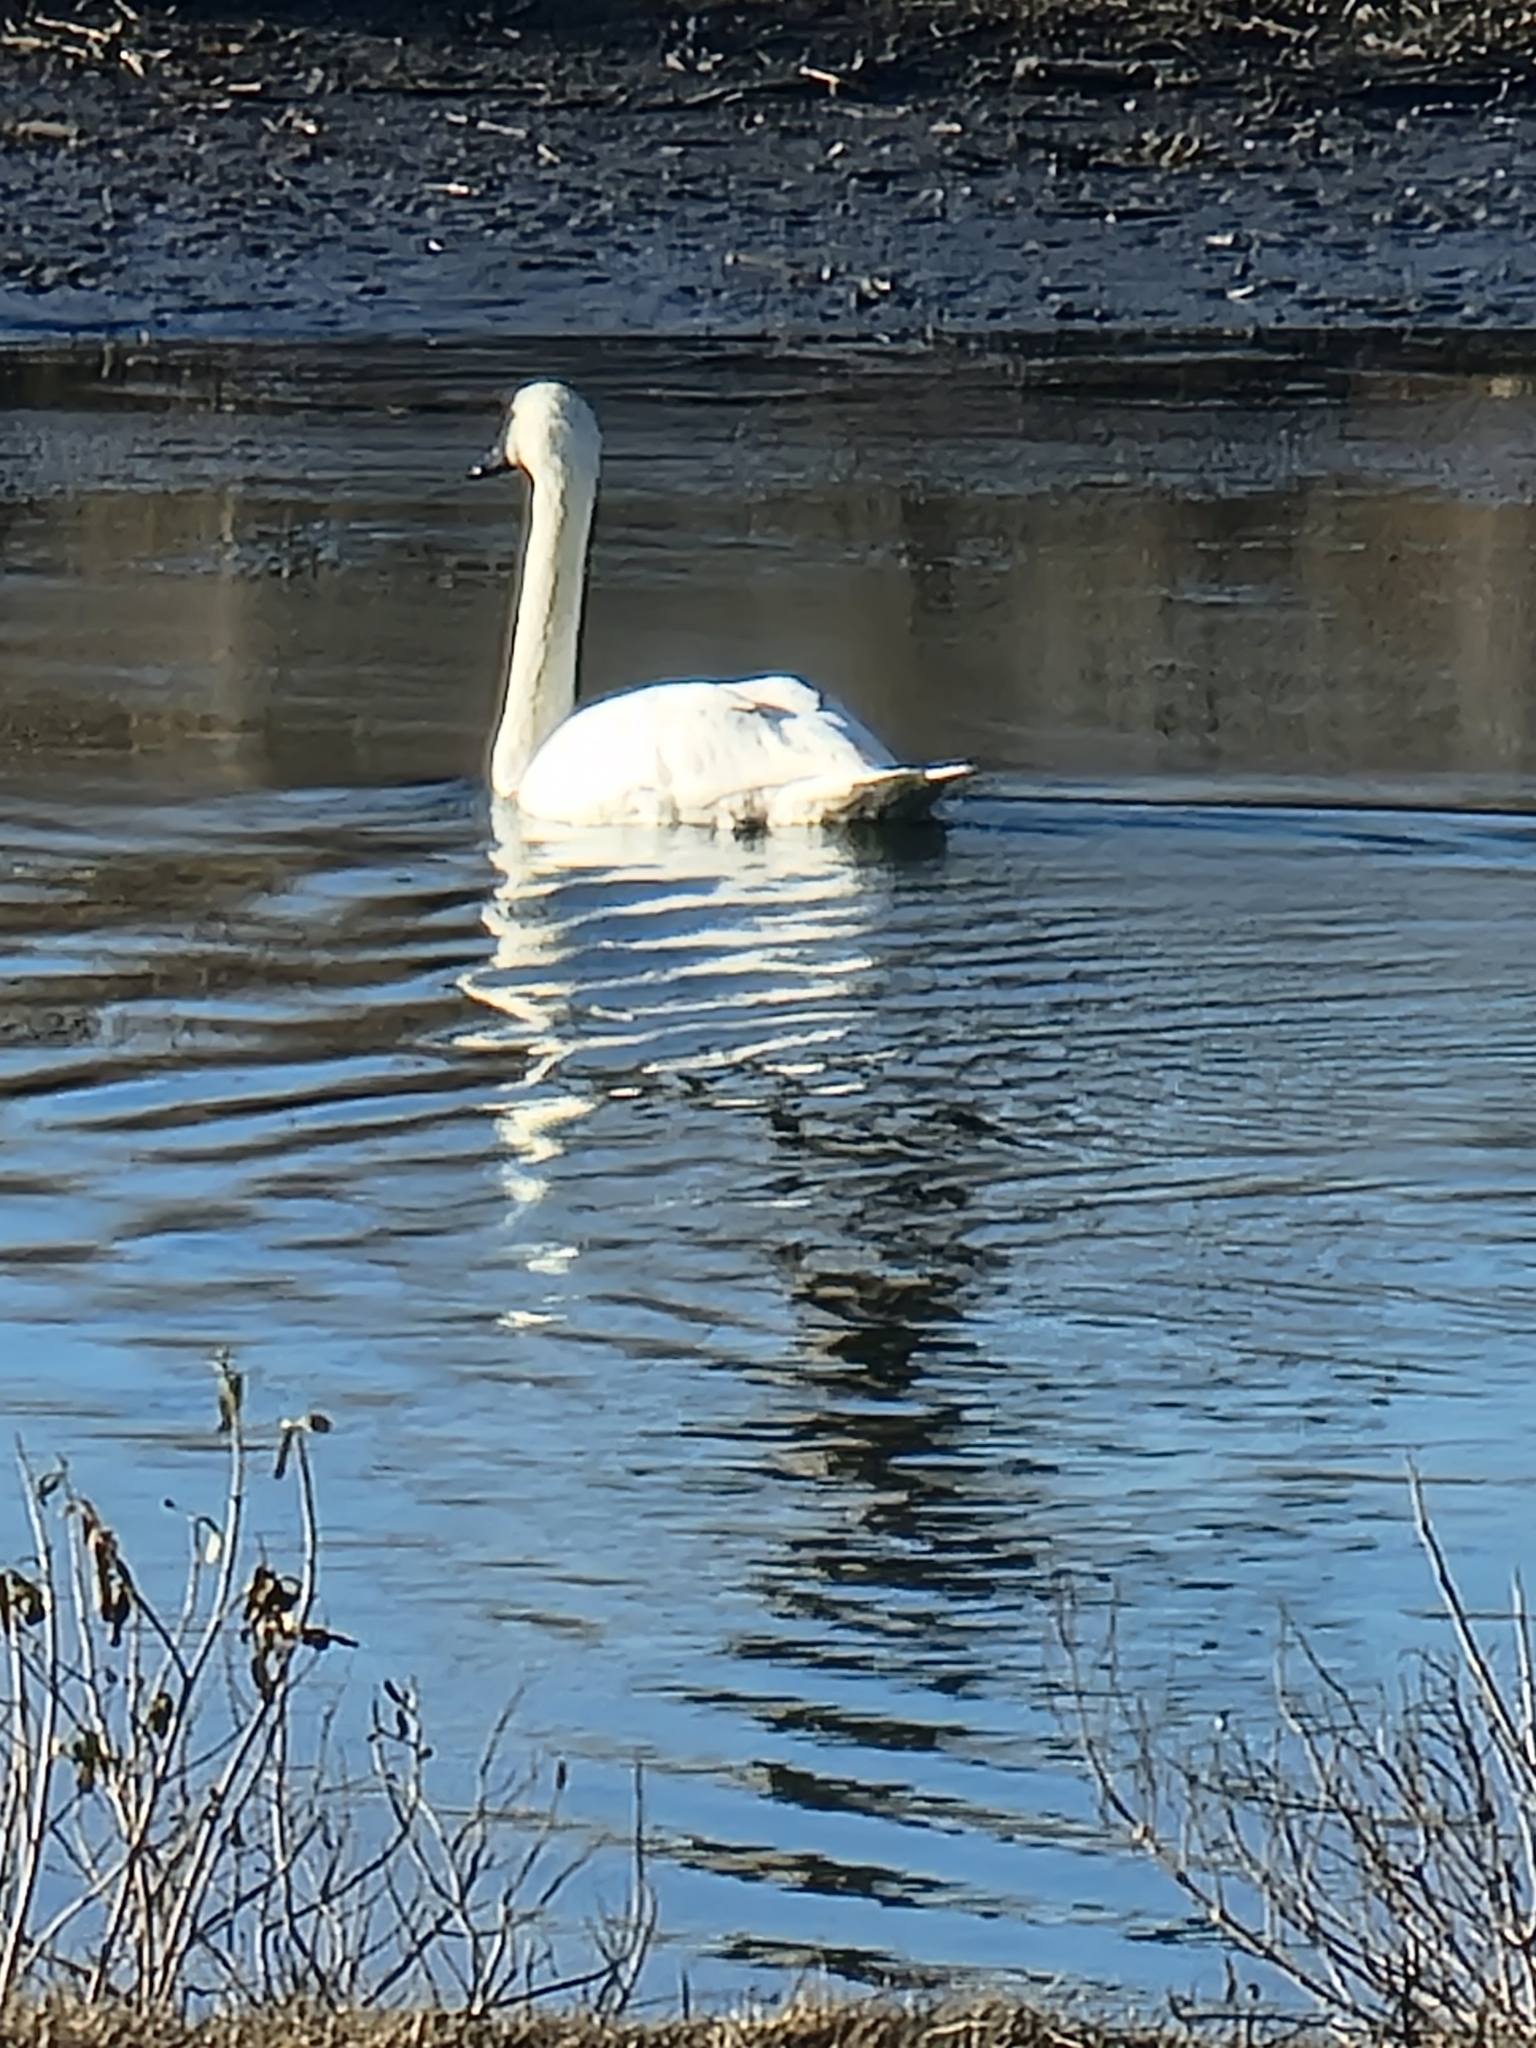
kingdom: Animalia
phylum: Chordata
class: Aves
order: Anseriformes
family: Anatidae
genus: Cygnus
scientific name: Cygnus columbianus
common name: Tundra swan
